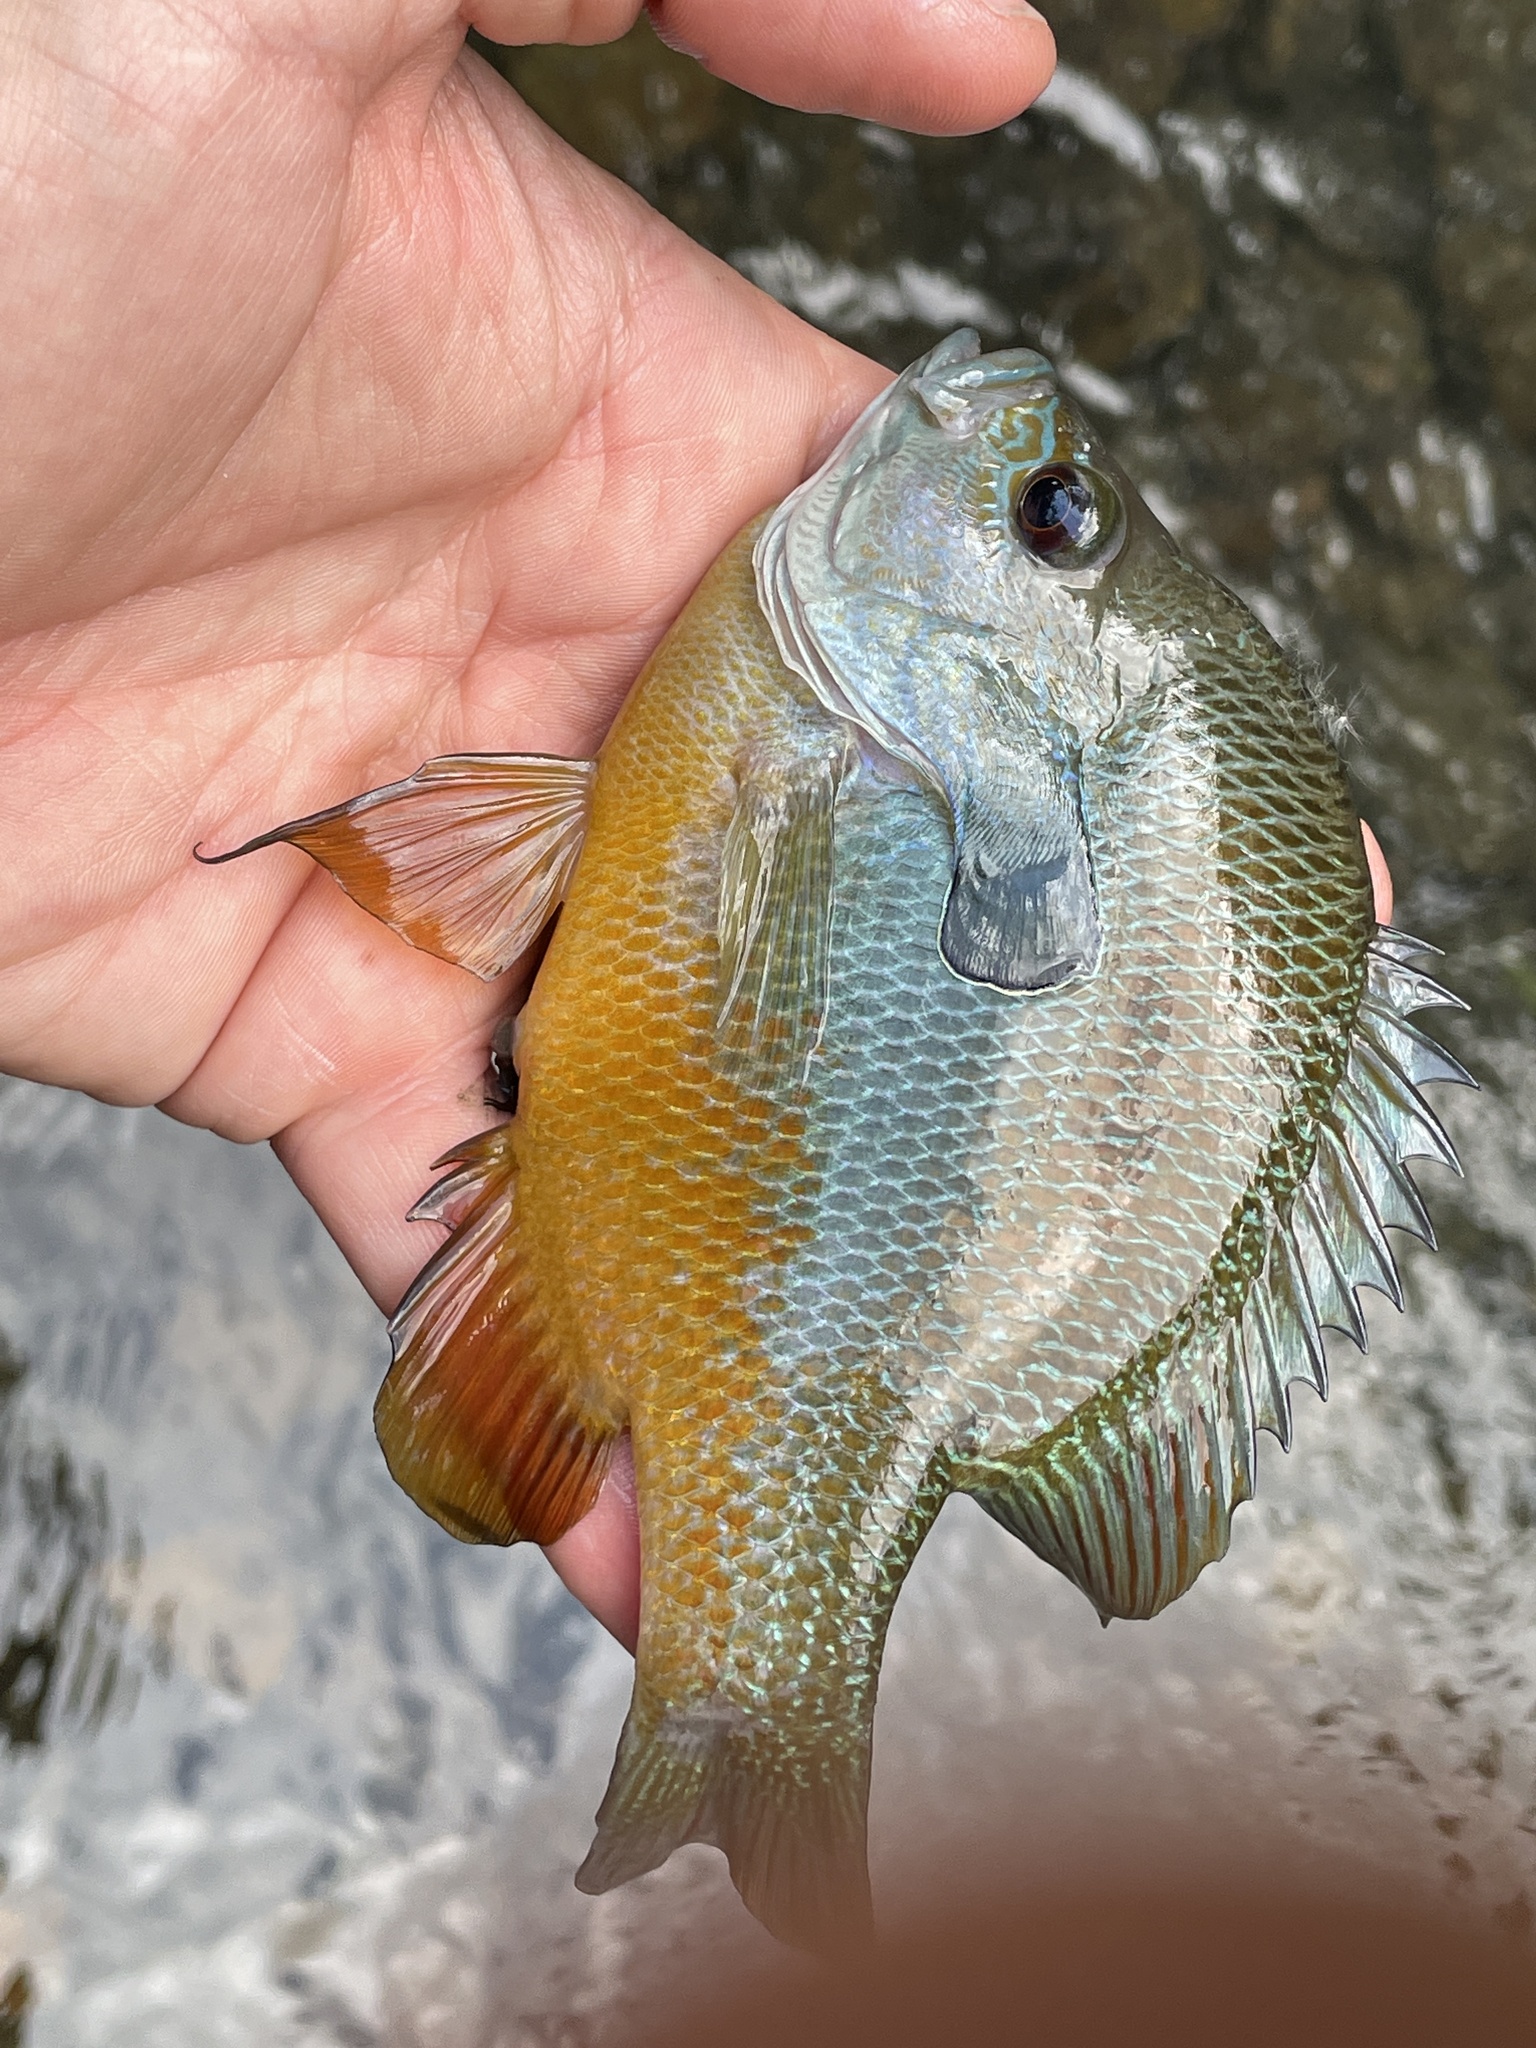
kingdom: Animalia
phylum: Chordata
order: Perciformes
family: Centrarchidae
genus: Lepomis
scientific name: Lepomis aquilensis
